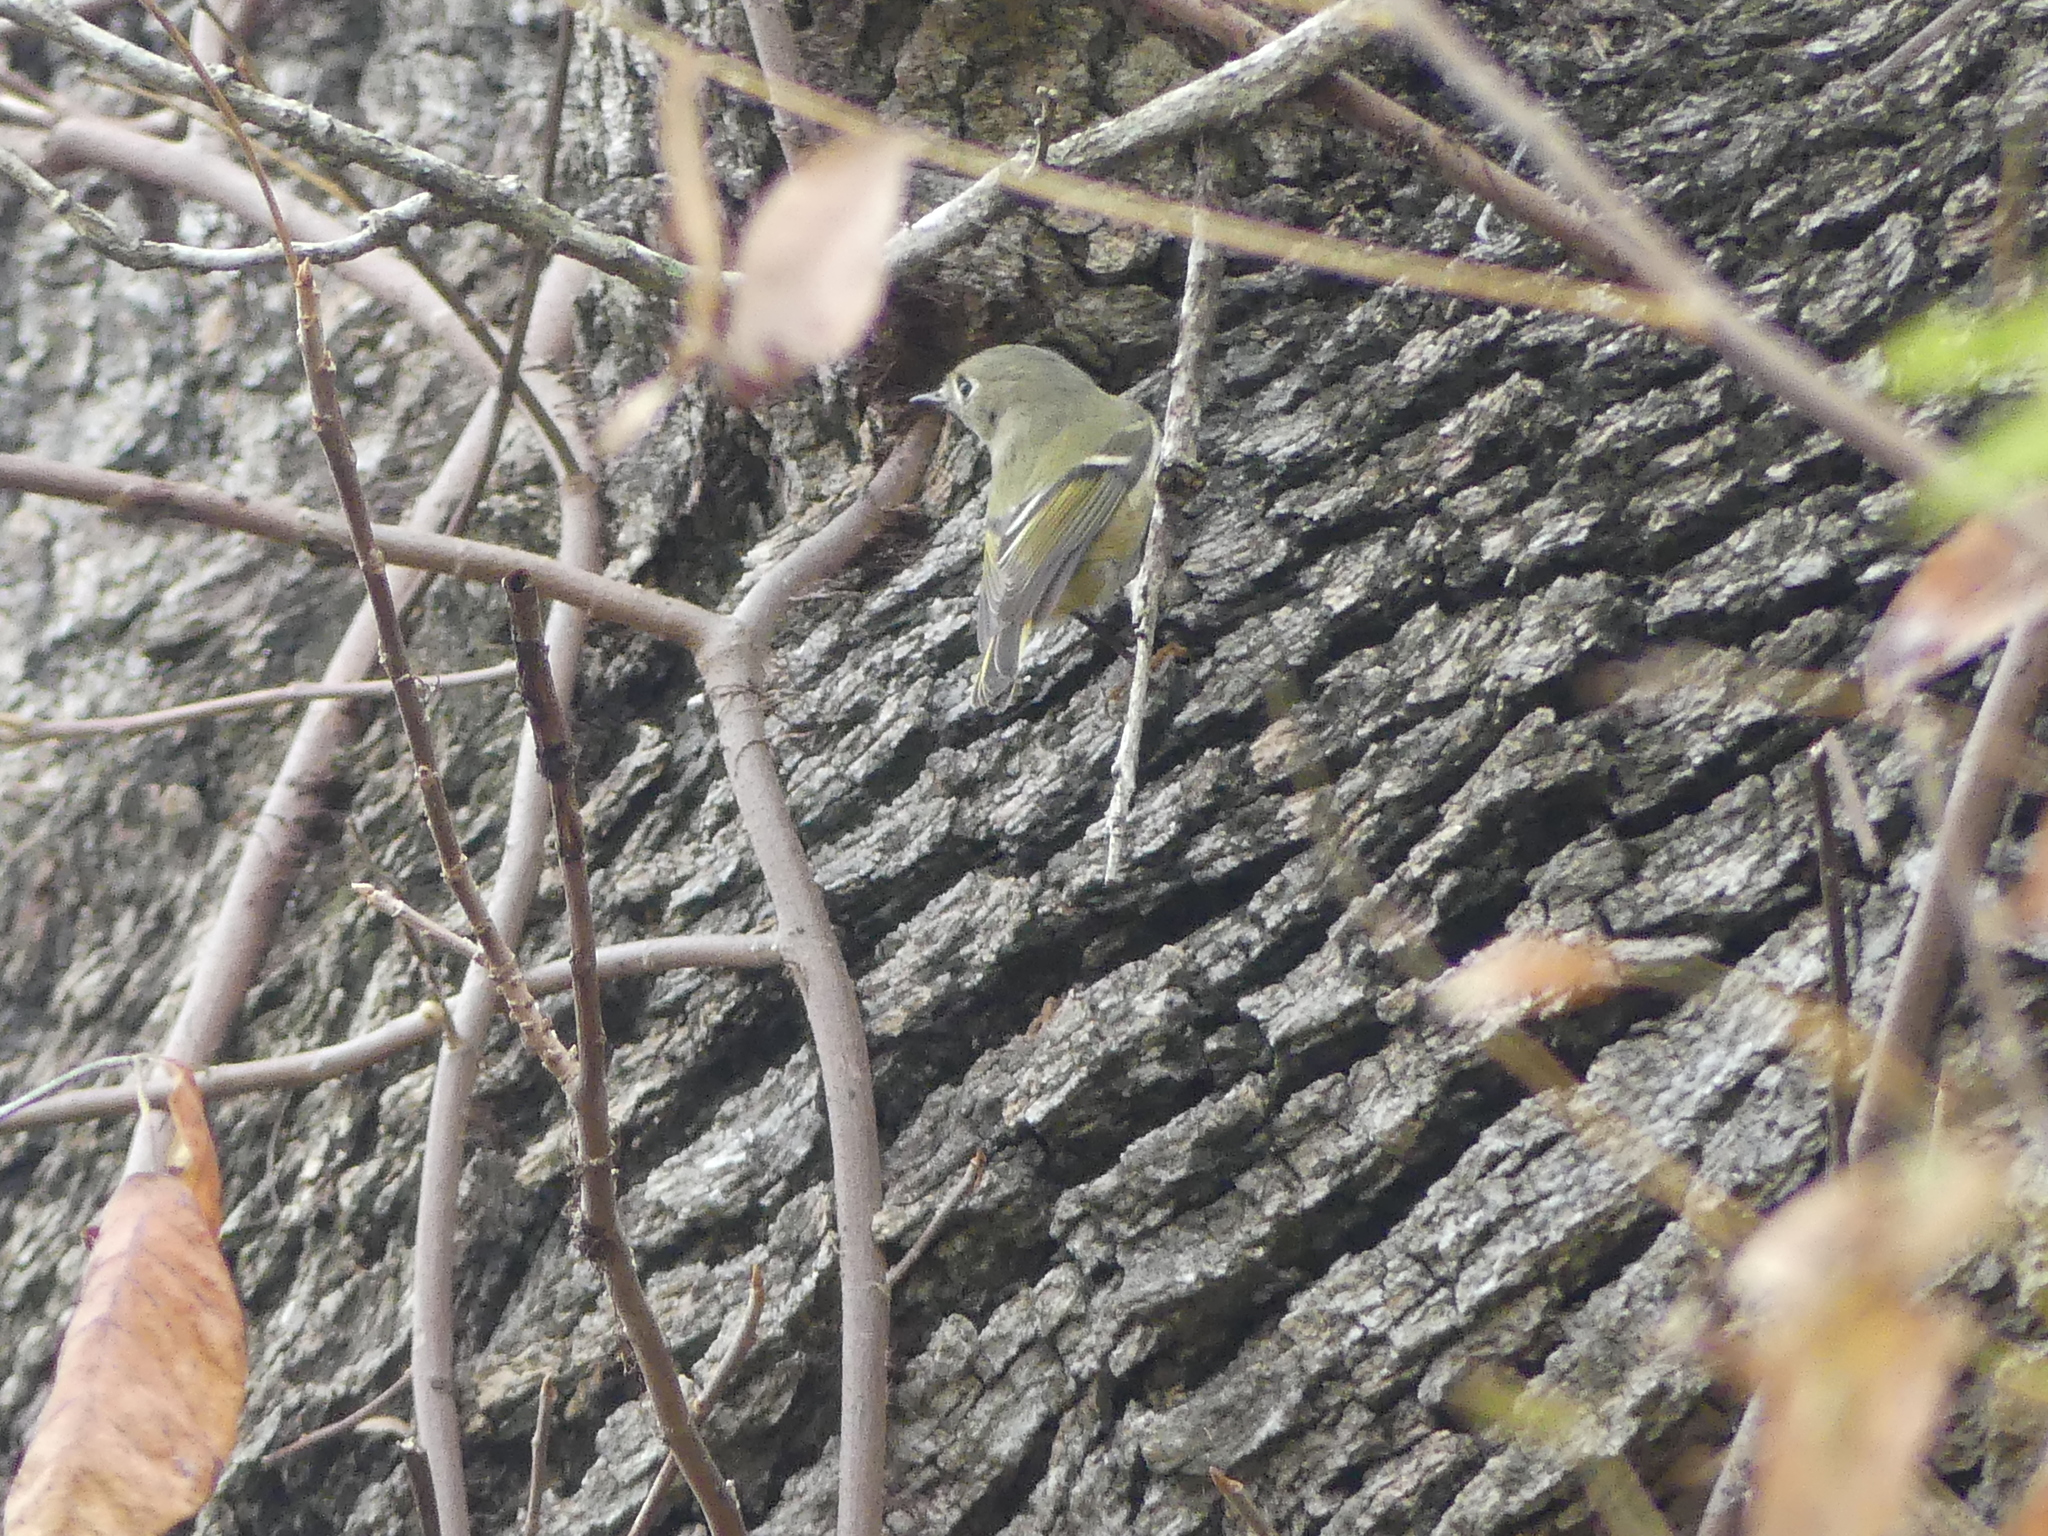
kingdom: Animalia
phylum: Chordata
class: Aves
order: Passeriformes
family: Regulidae
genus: Regulus
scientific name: Regulus calendula
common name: Ruby-crowned kinglet
